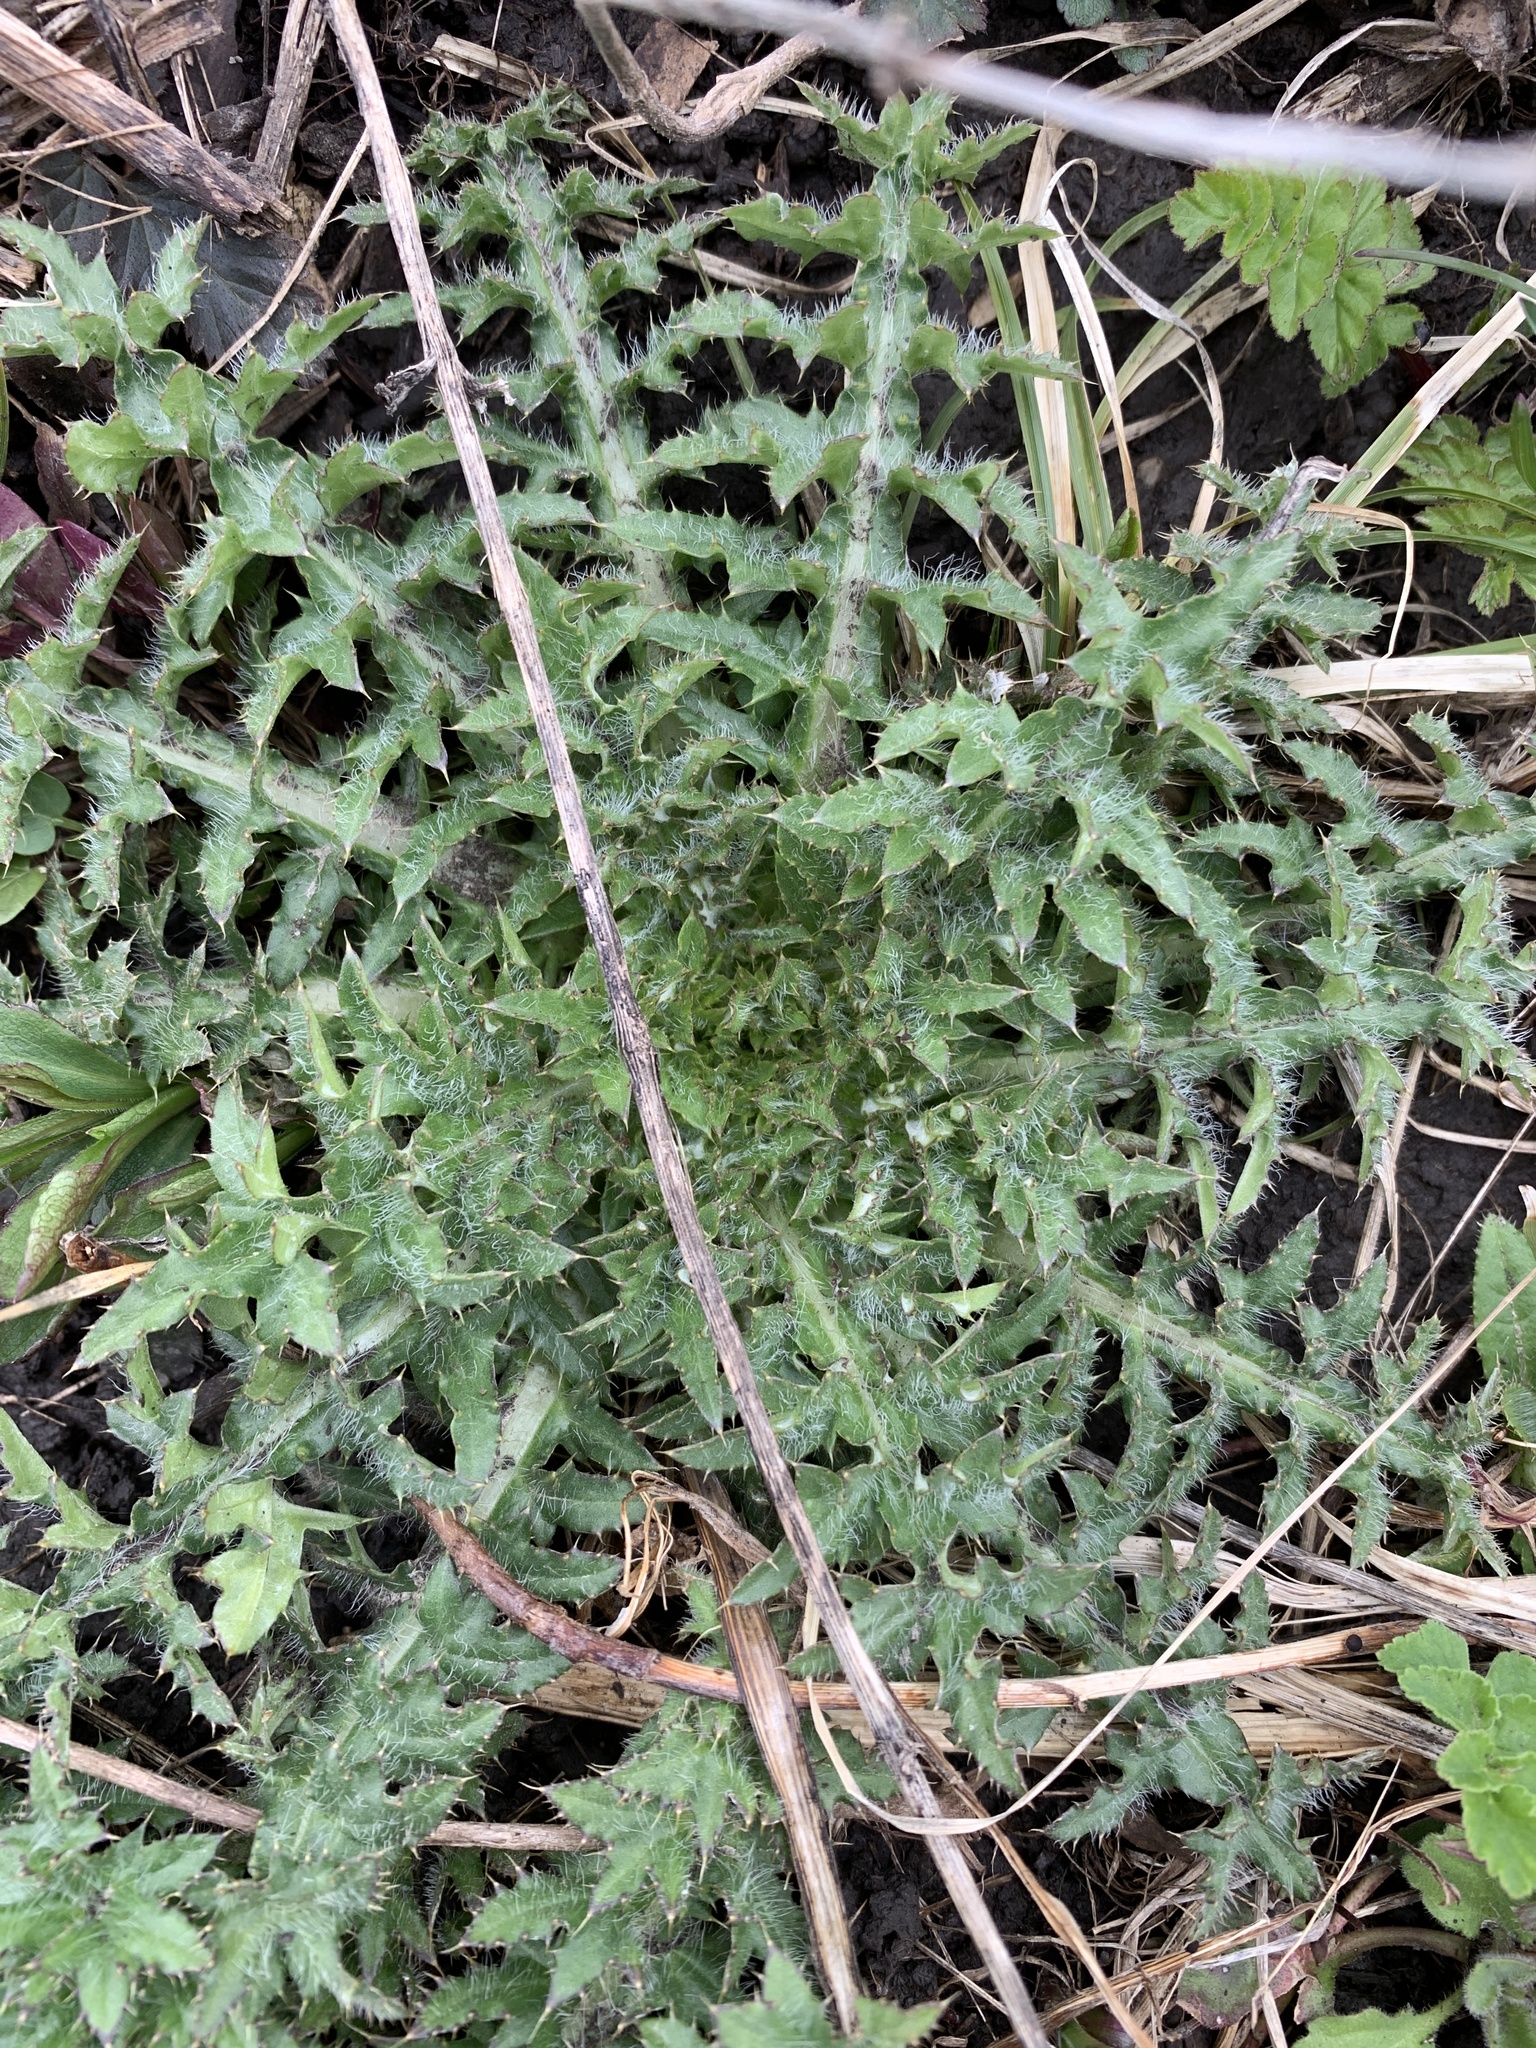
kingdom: Plantae
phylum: Tracheophyta
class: Magnoliopsida
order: Asterales
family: Asteraceae
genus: Cirsium
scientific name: Cirsium vulgare
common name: Bull thistle
